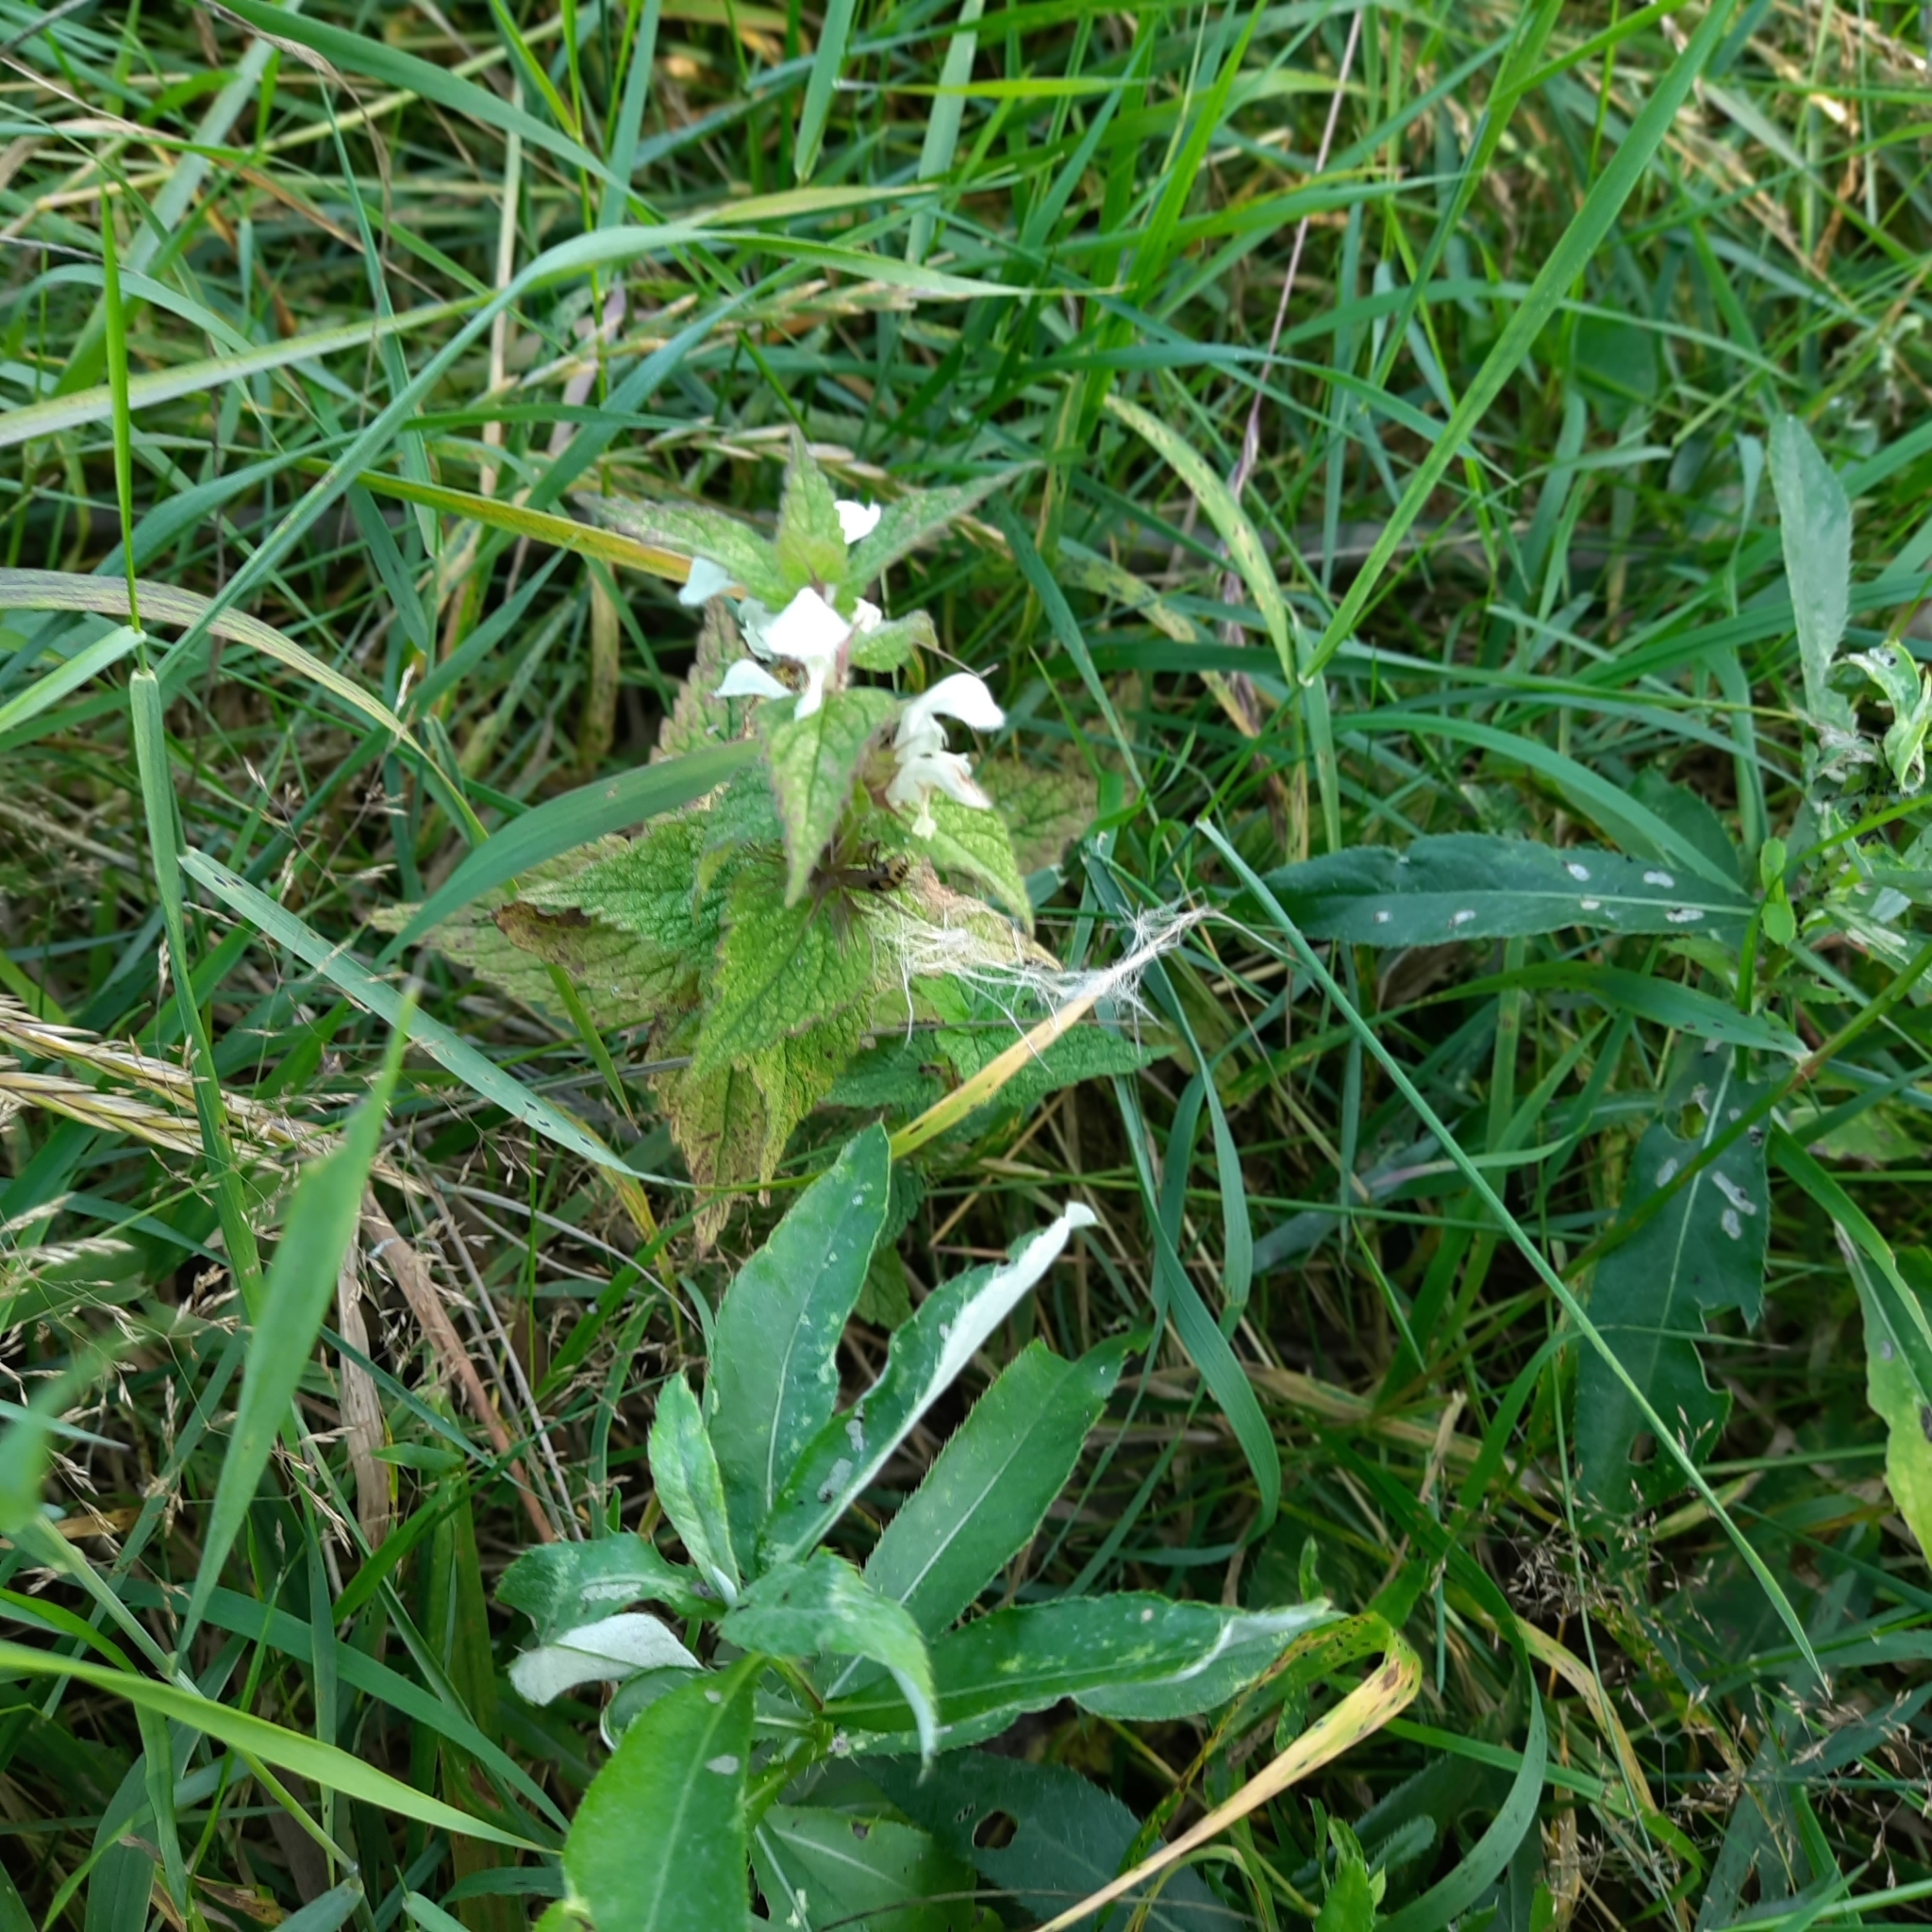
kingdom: Plantae
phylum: Tracheophyta
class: Magnoliopsida
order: Lamiales
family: Lamiaceae
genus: Lamium
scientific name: Lamium album
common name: White dead-nettle
